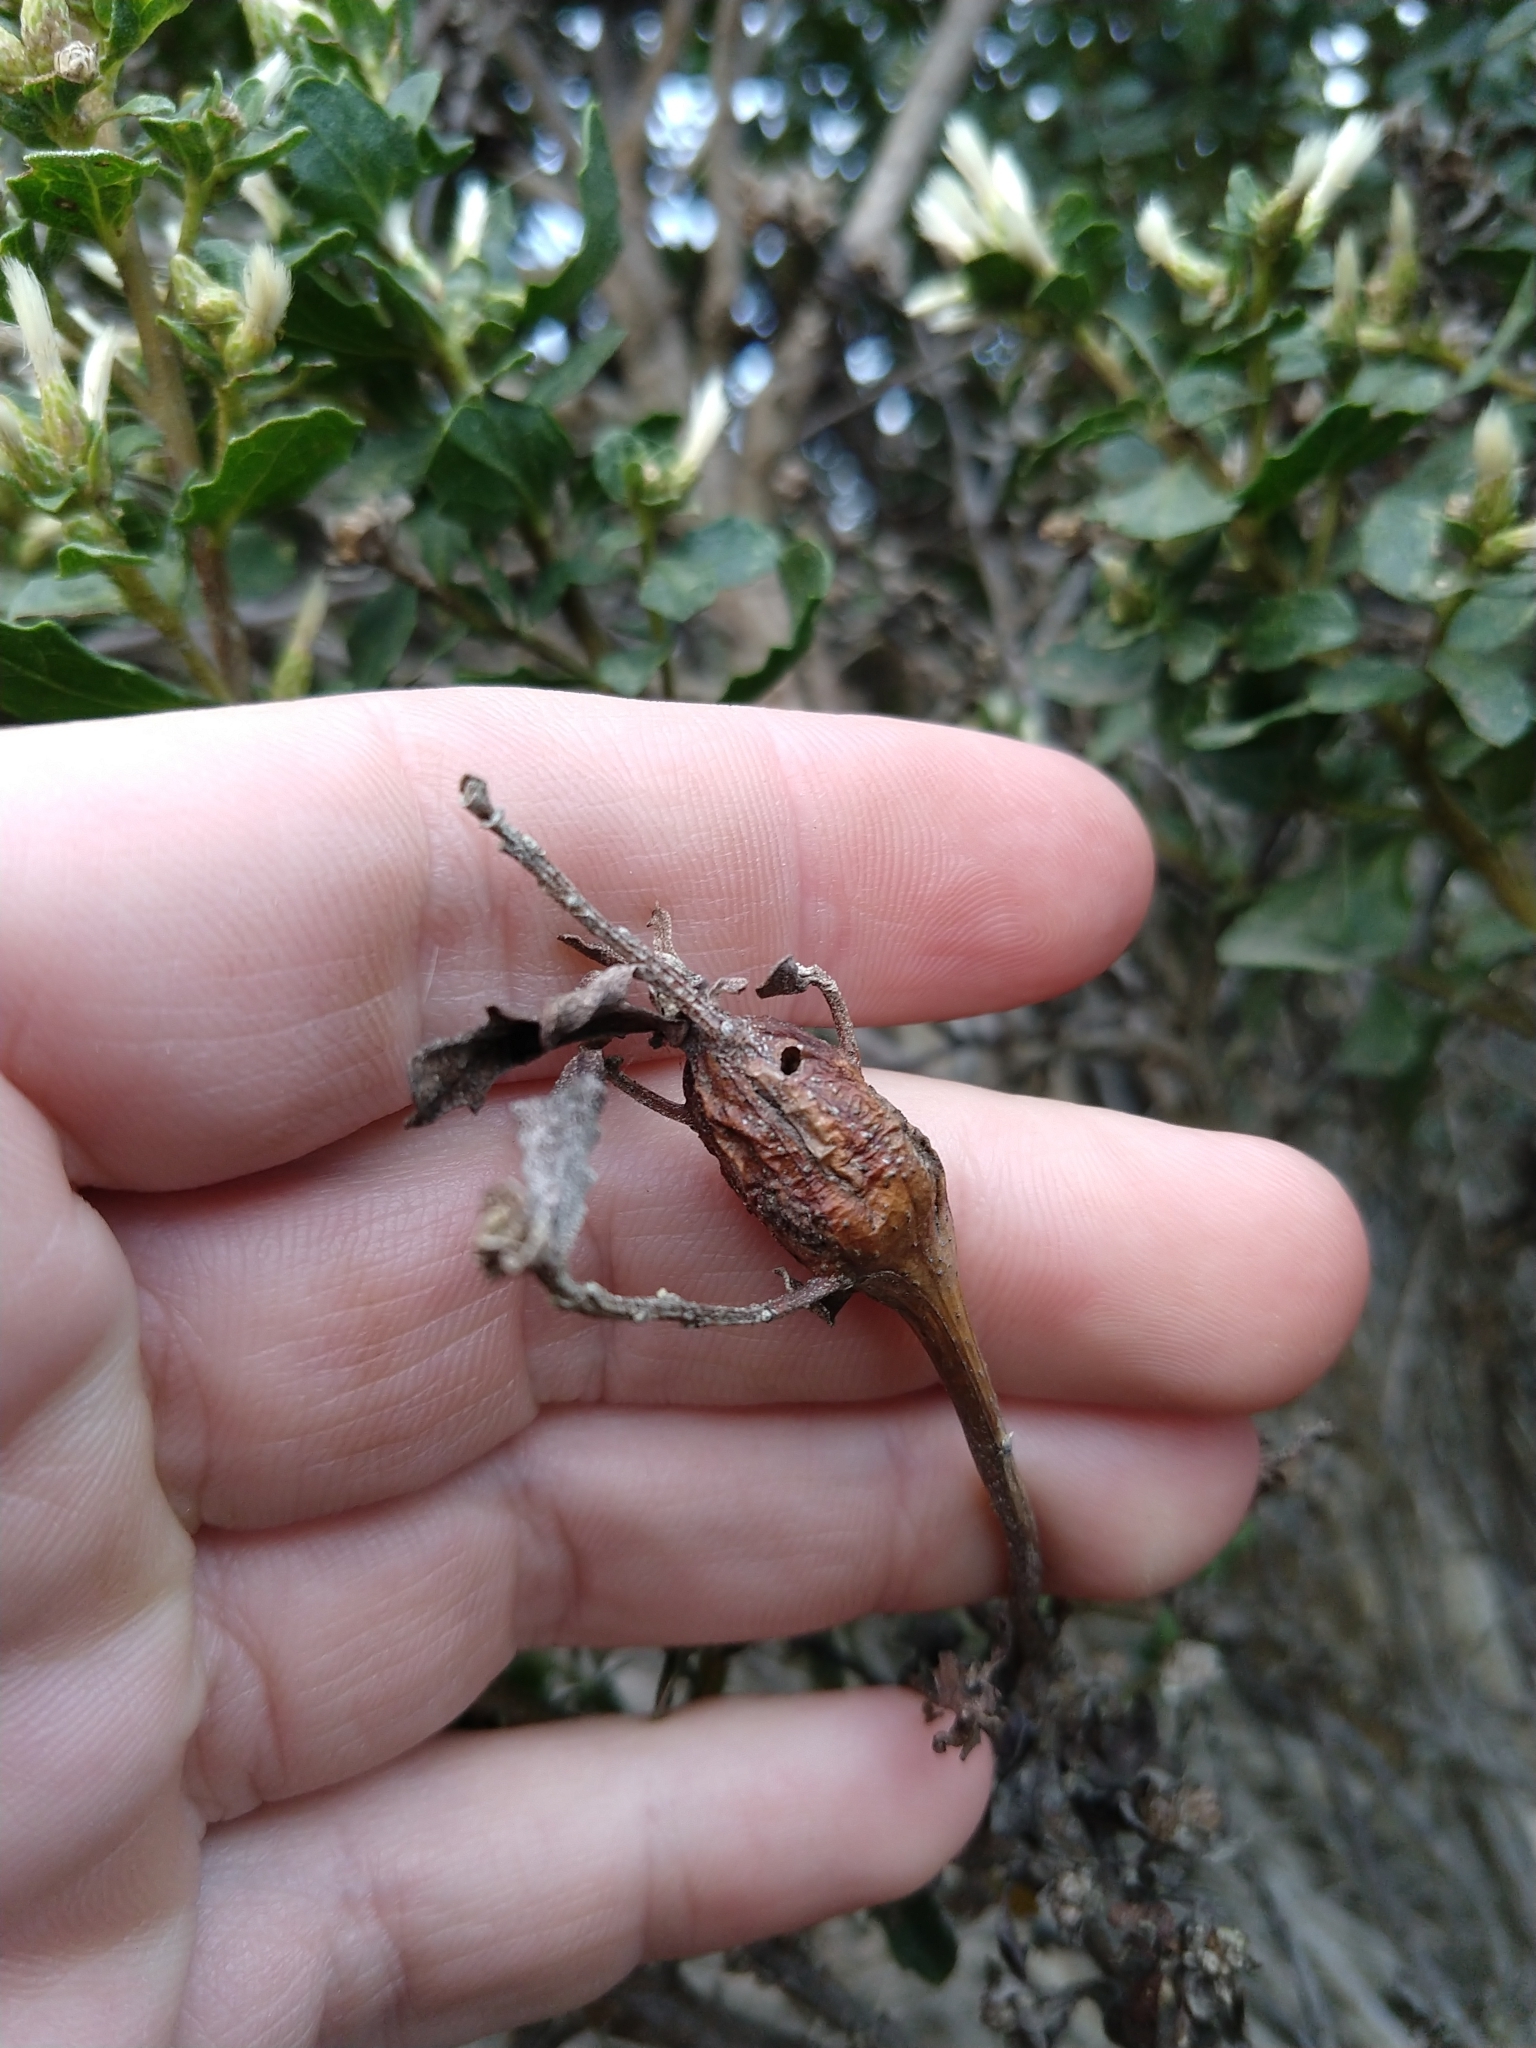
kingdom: Animalia
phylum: Arthropoda
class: Insecta
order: Lepidoptera
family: Gelechiidae
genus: Gnorimoschema
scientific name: Gnorimoschema baccharisella
